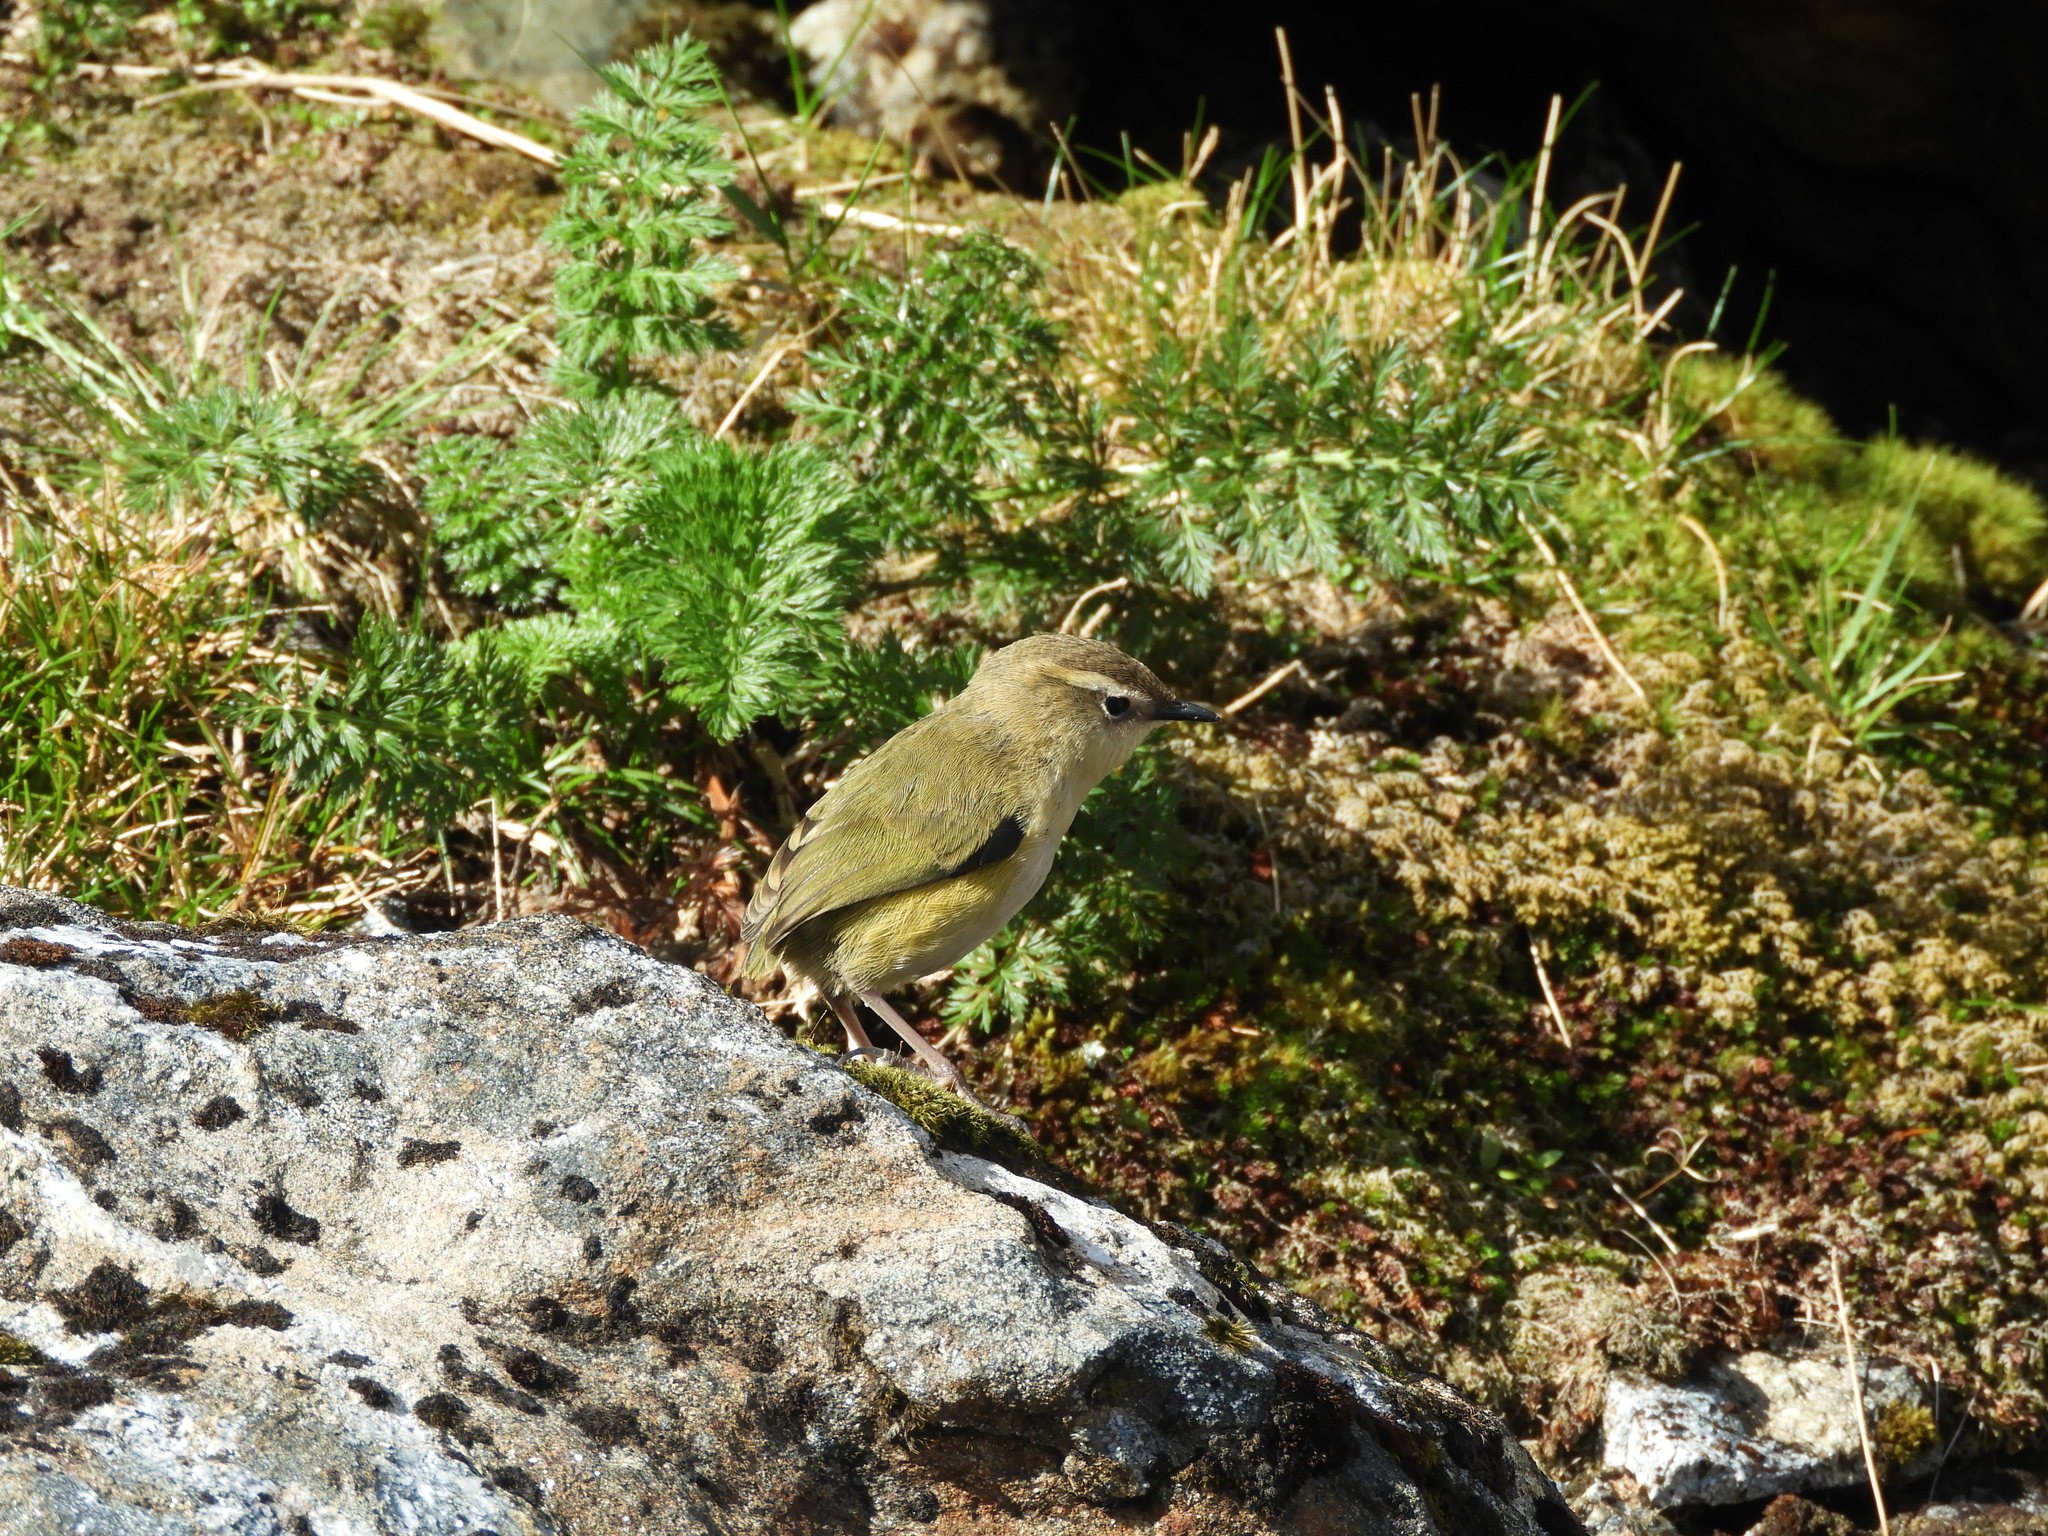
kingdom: Animalia
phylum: Chordata
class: Aves
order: Passeriformes
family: Acanthisittidae
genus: Xenicus
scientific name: Xenicus gilviventris
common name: New zealand rockwren
